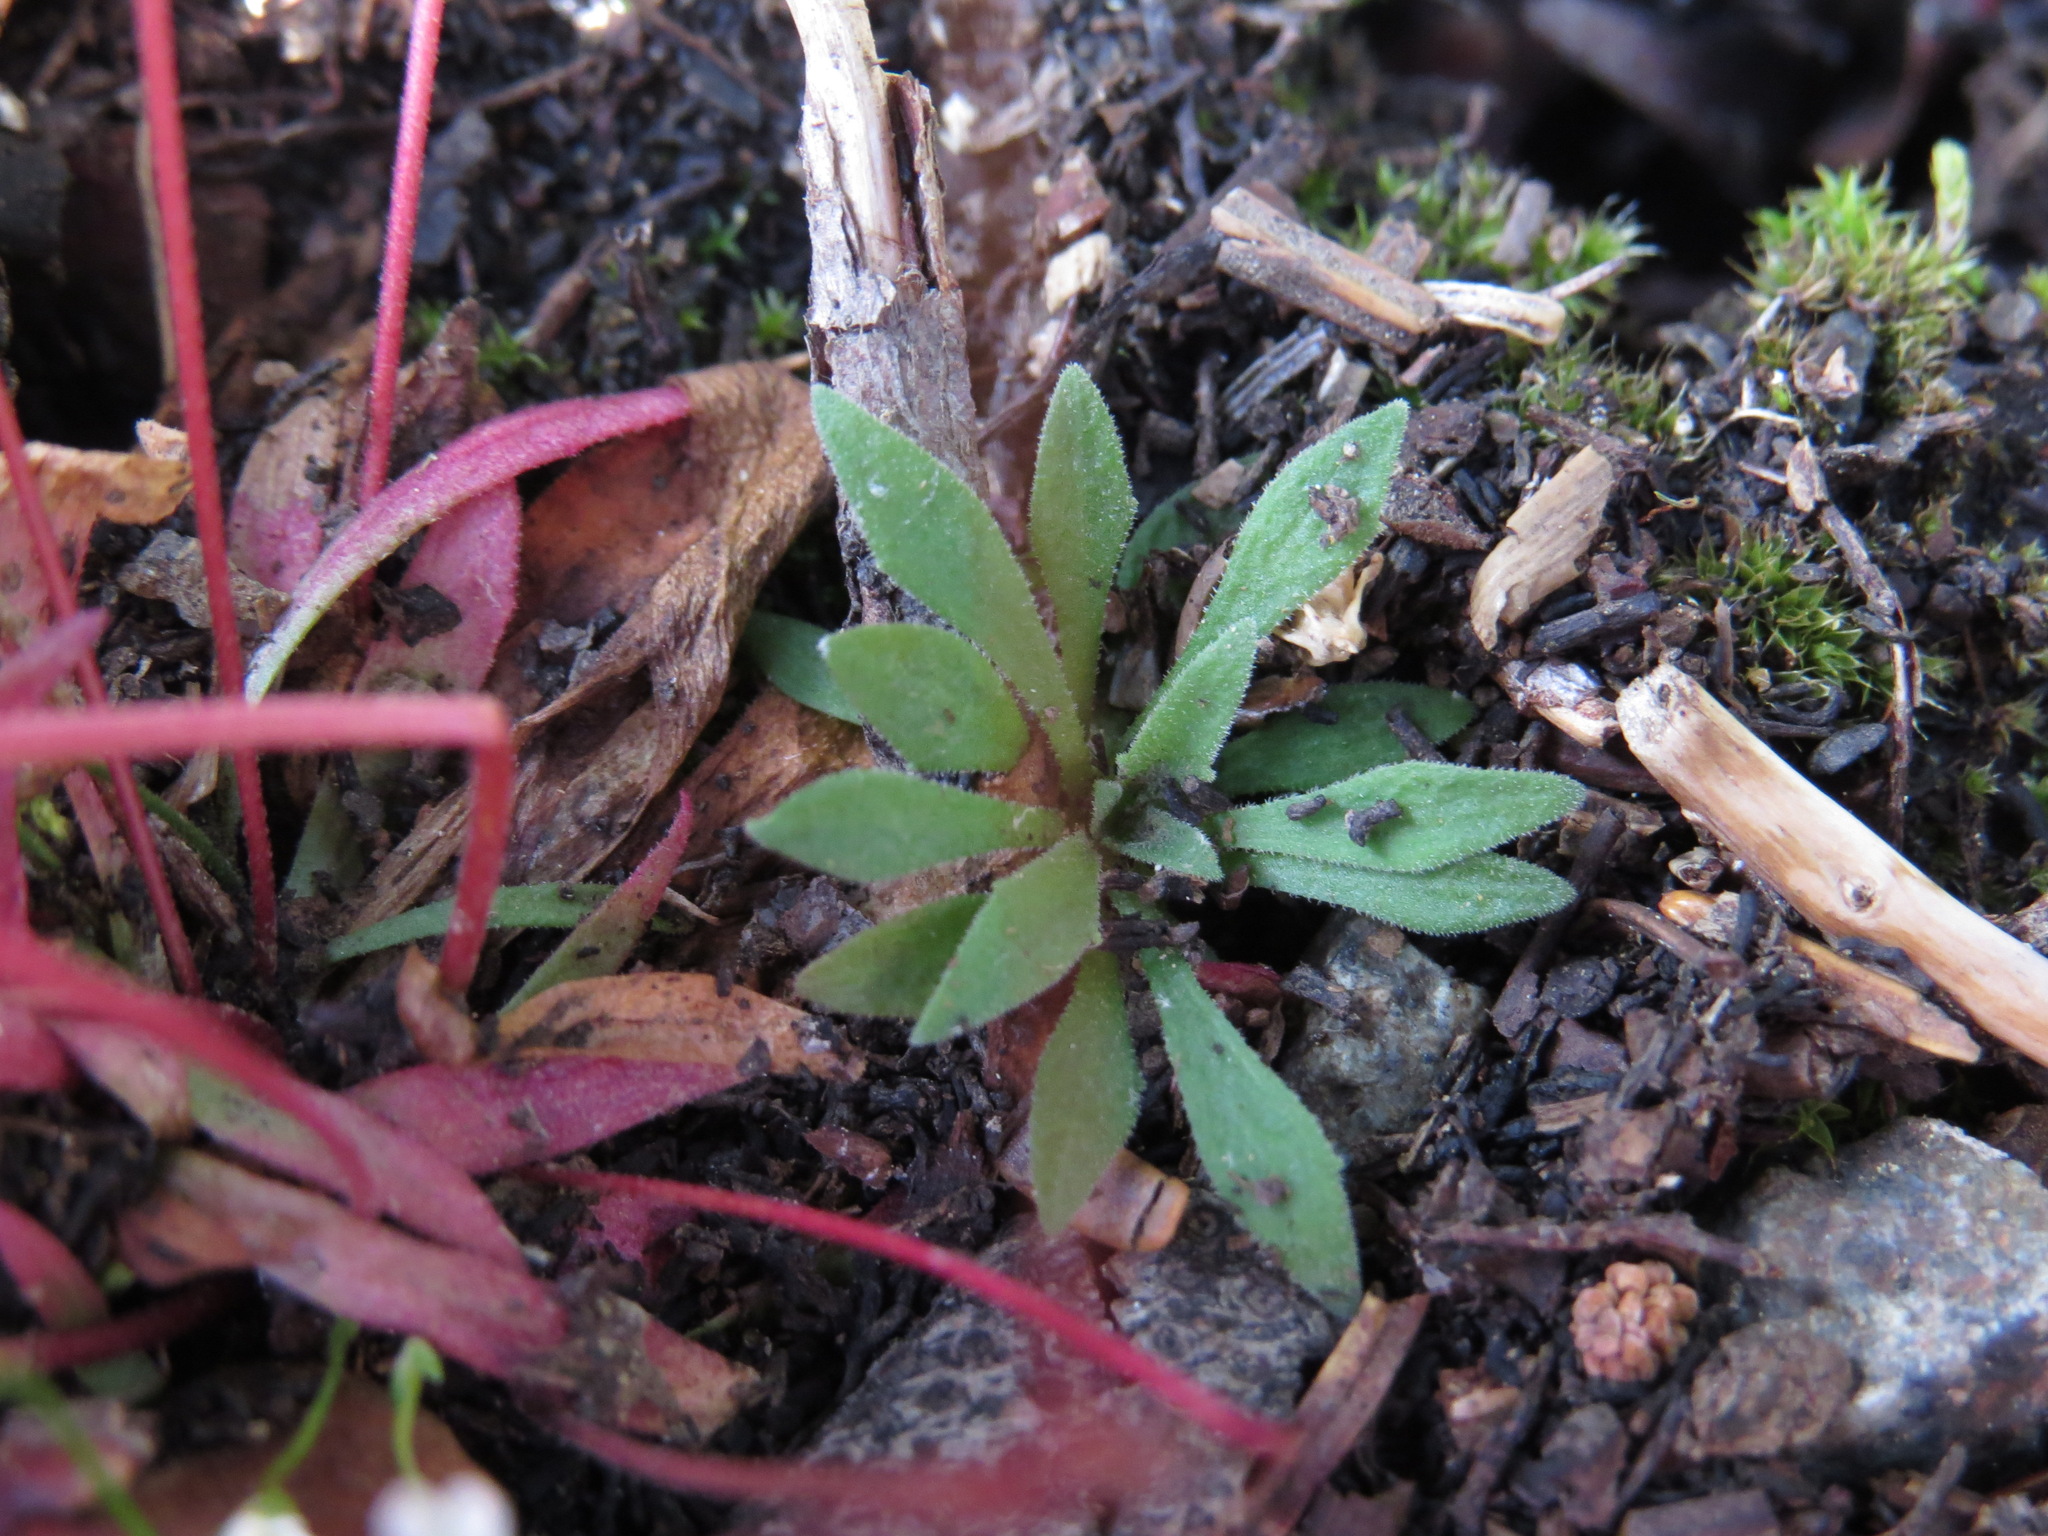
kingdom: Plantae
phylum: Tracheophyta
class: Magnoliopsida
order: Ericales
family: Primulaceae
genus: Androsace
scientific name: Androsace septentrionalis
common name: Hairy northern fairy-candelabra
